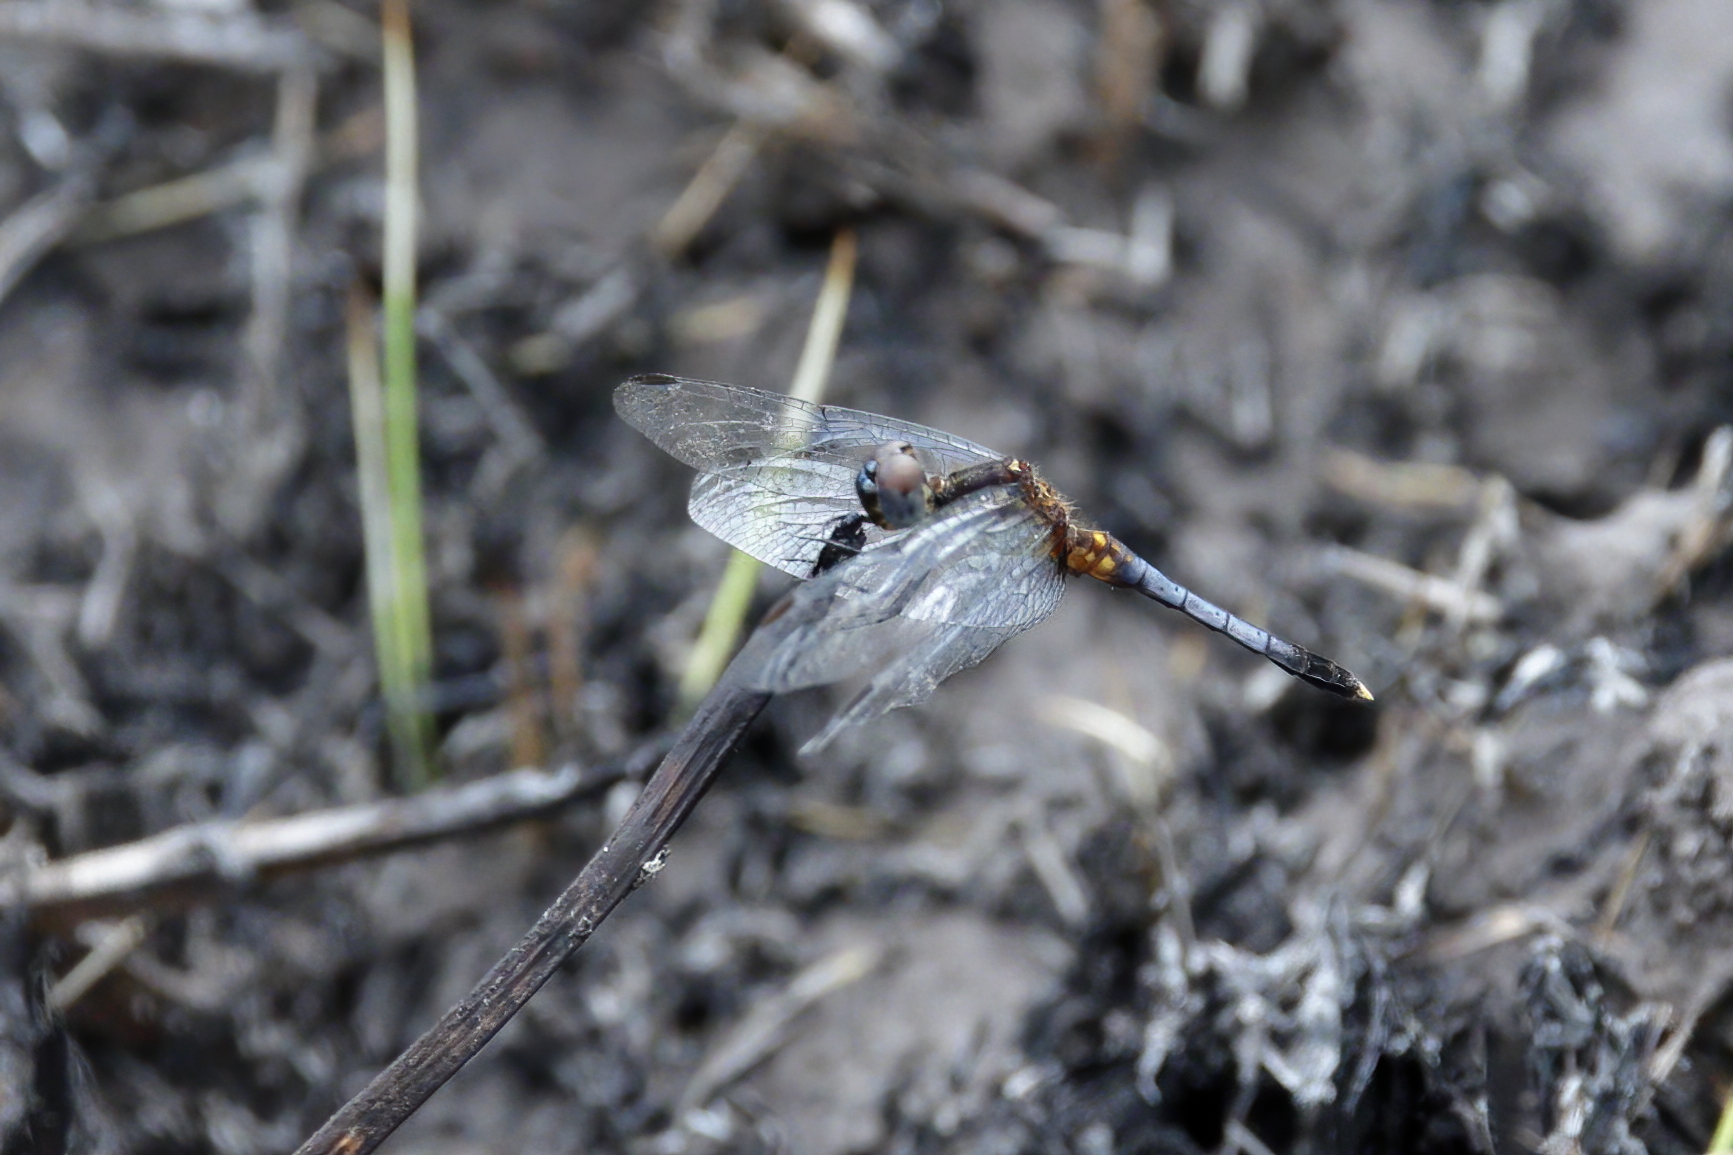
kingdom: Animalia
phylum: Arthropoda
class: Insecta
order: Odonata
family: Libellulidae
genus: Erythrodiplax
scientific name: Erythrodiplax minuscula
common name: Little blue dragonlet
